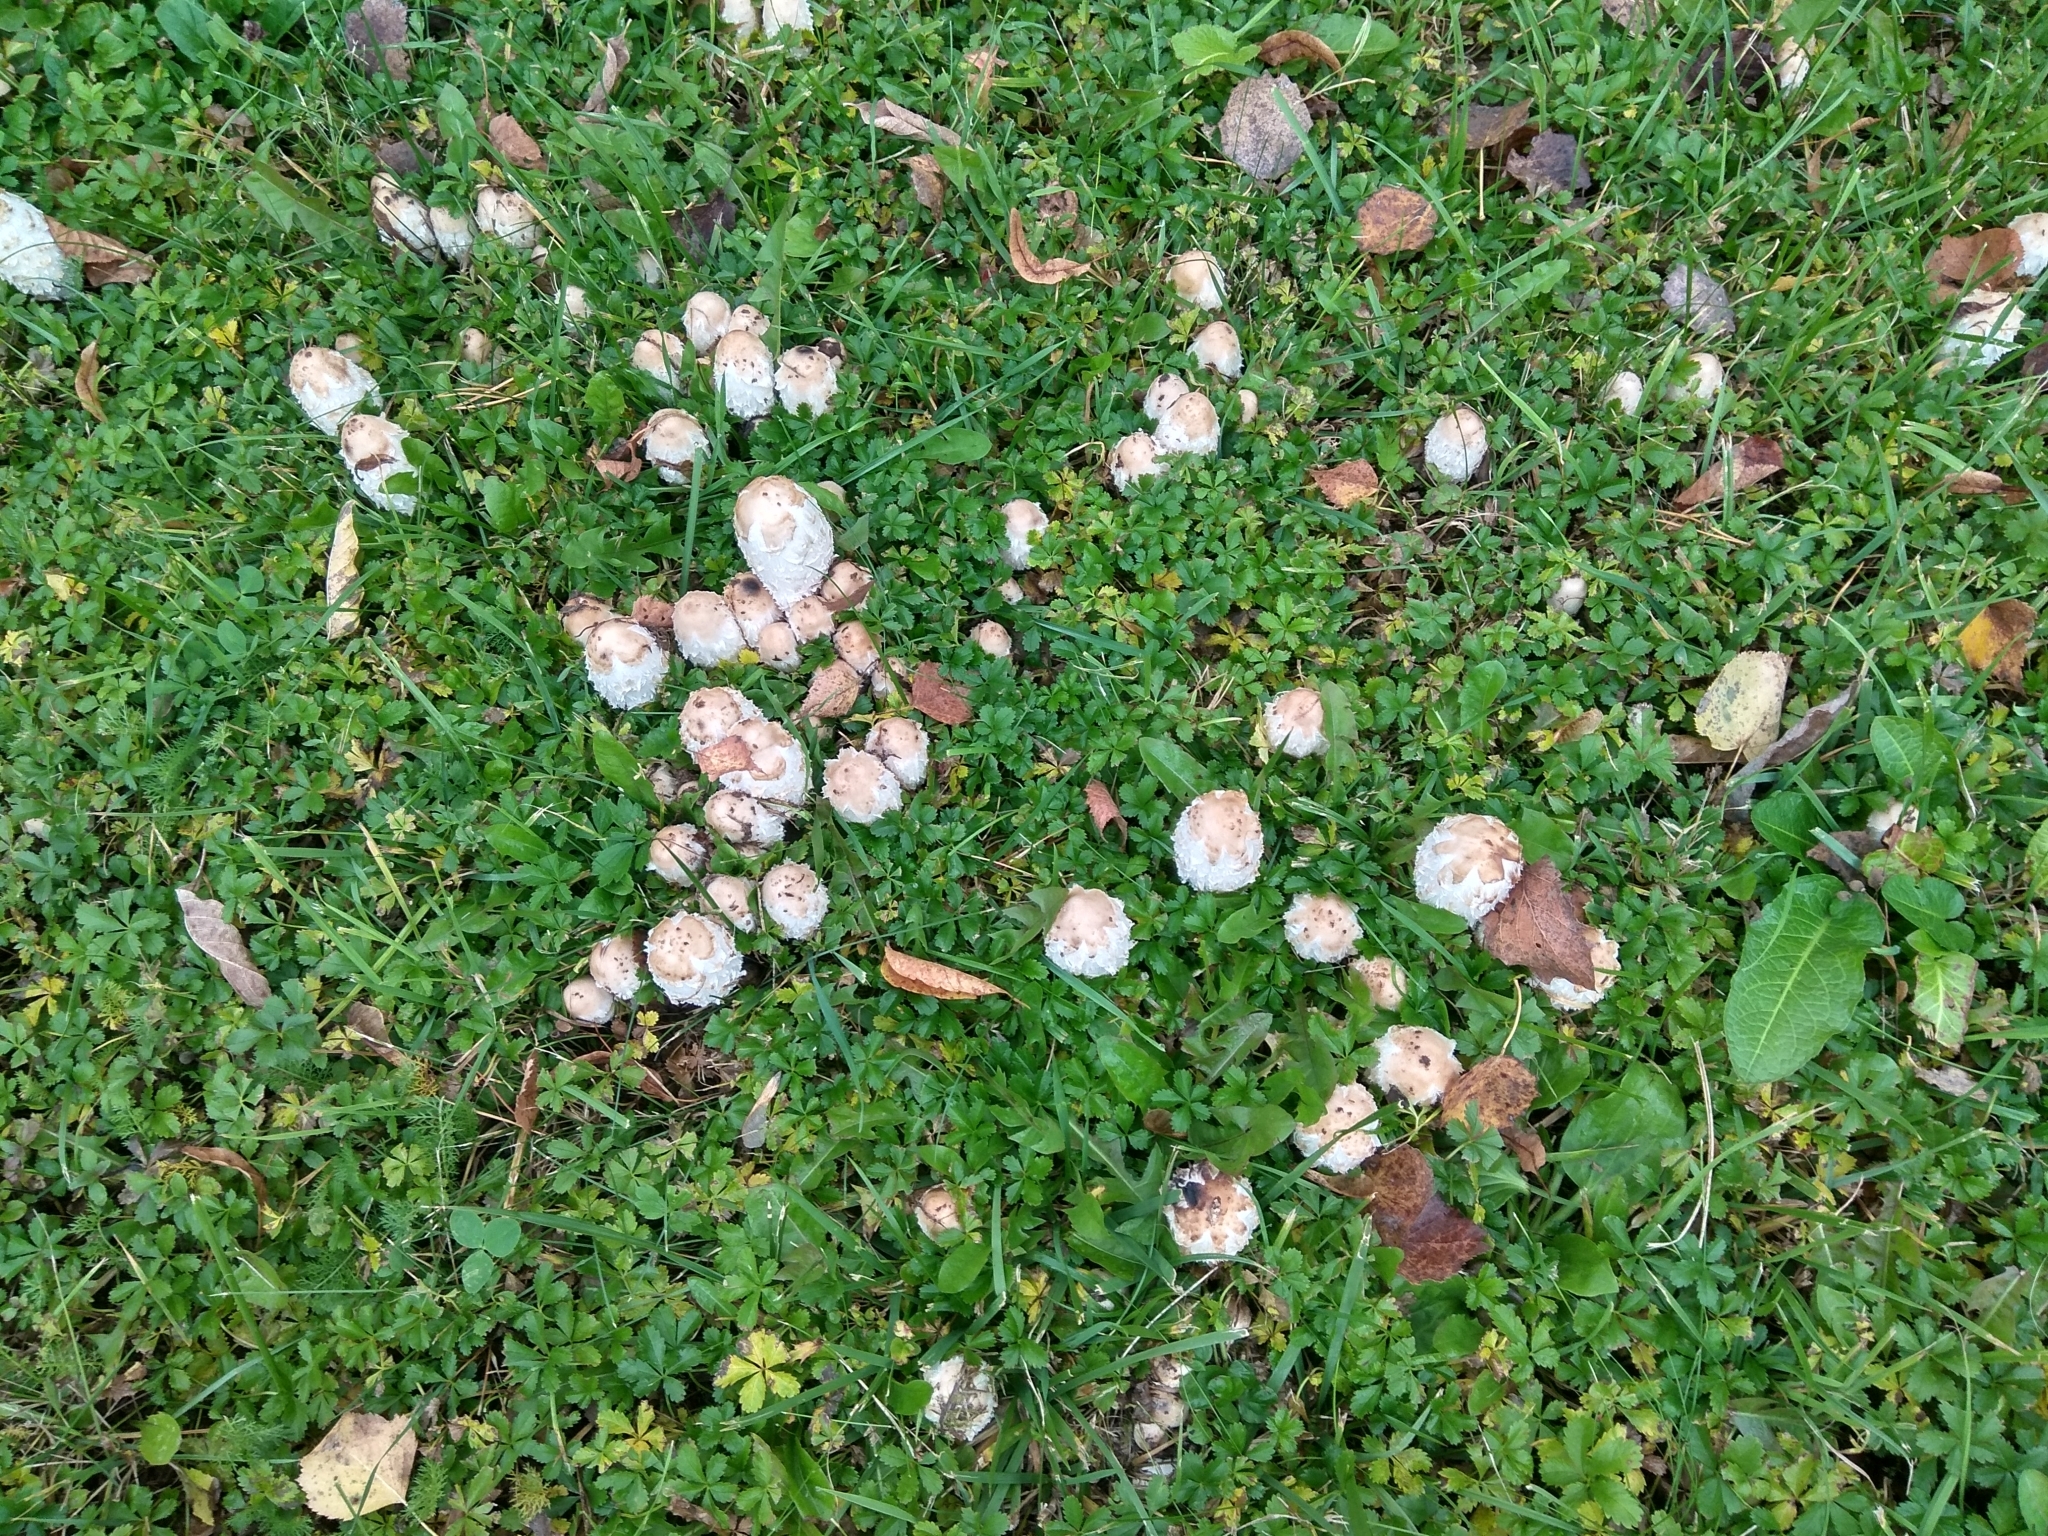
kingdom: Fungi
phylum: Basidiomycota
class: Agaricomycetes
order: Agaricales
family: Agaricaceae
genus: Coprinus
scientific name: Coprinus comatus
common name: Lawyer's wig
